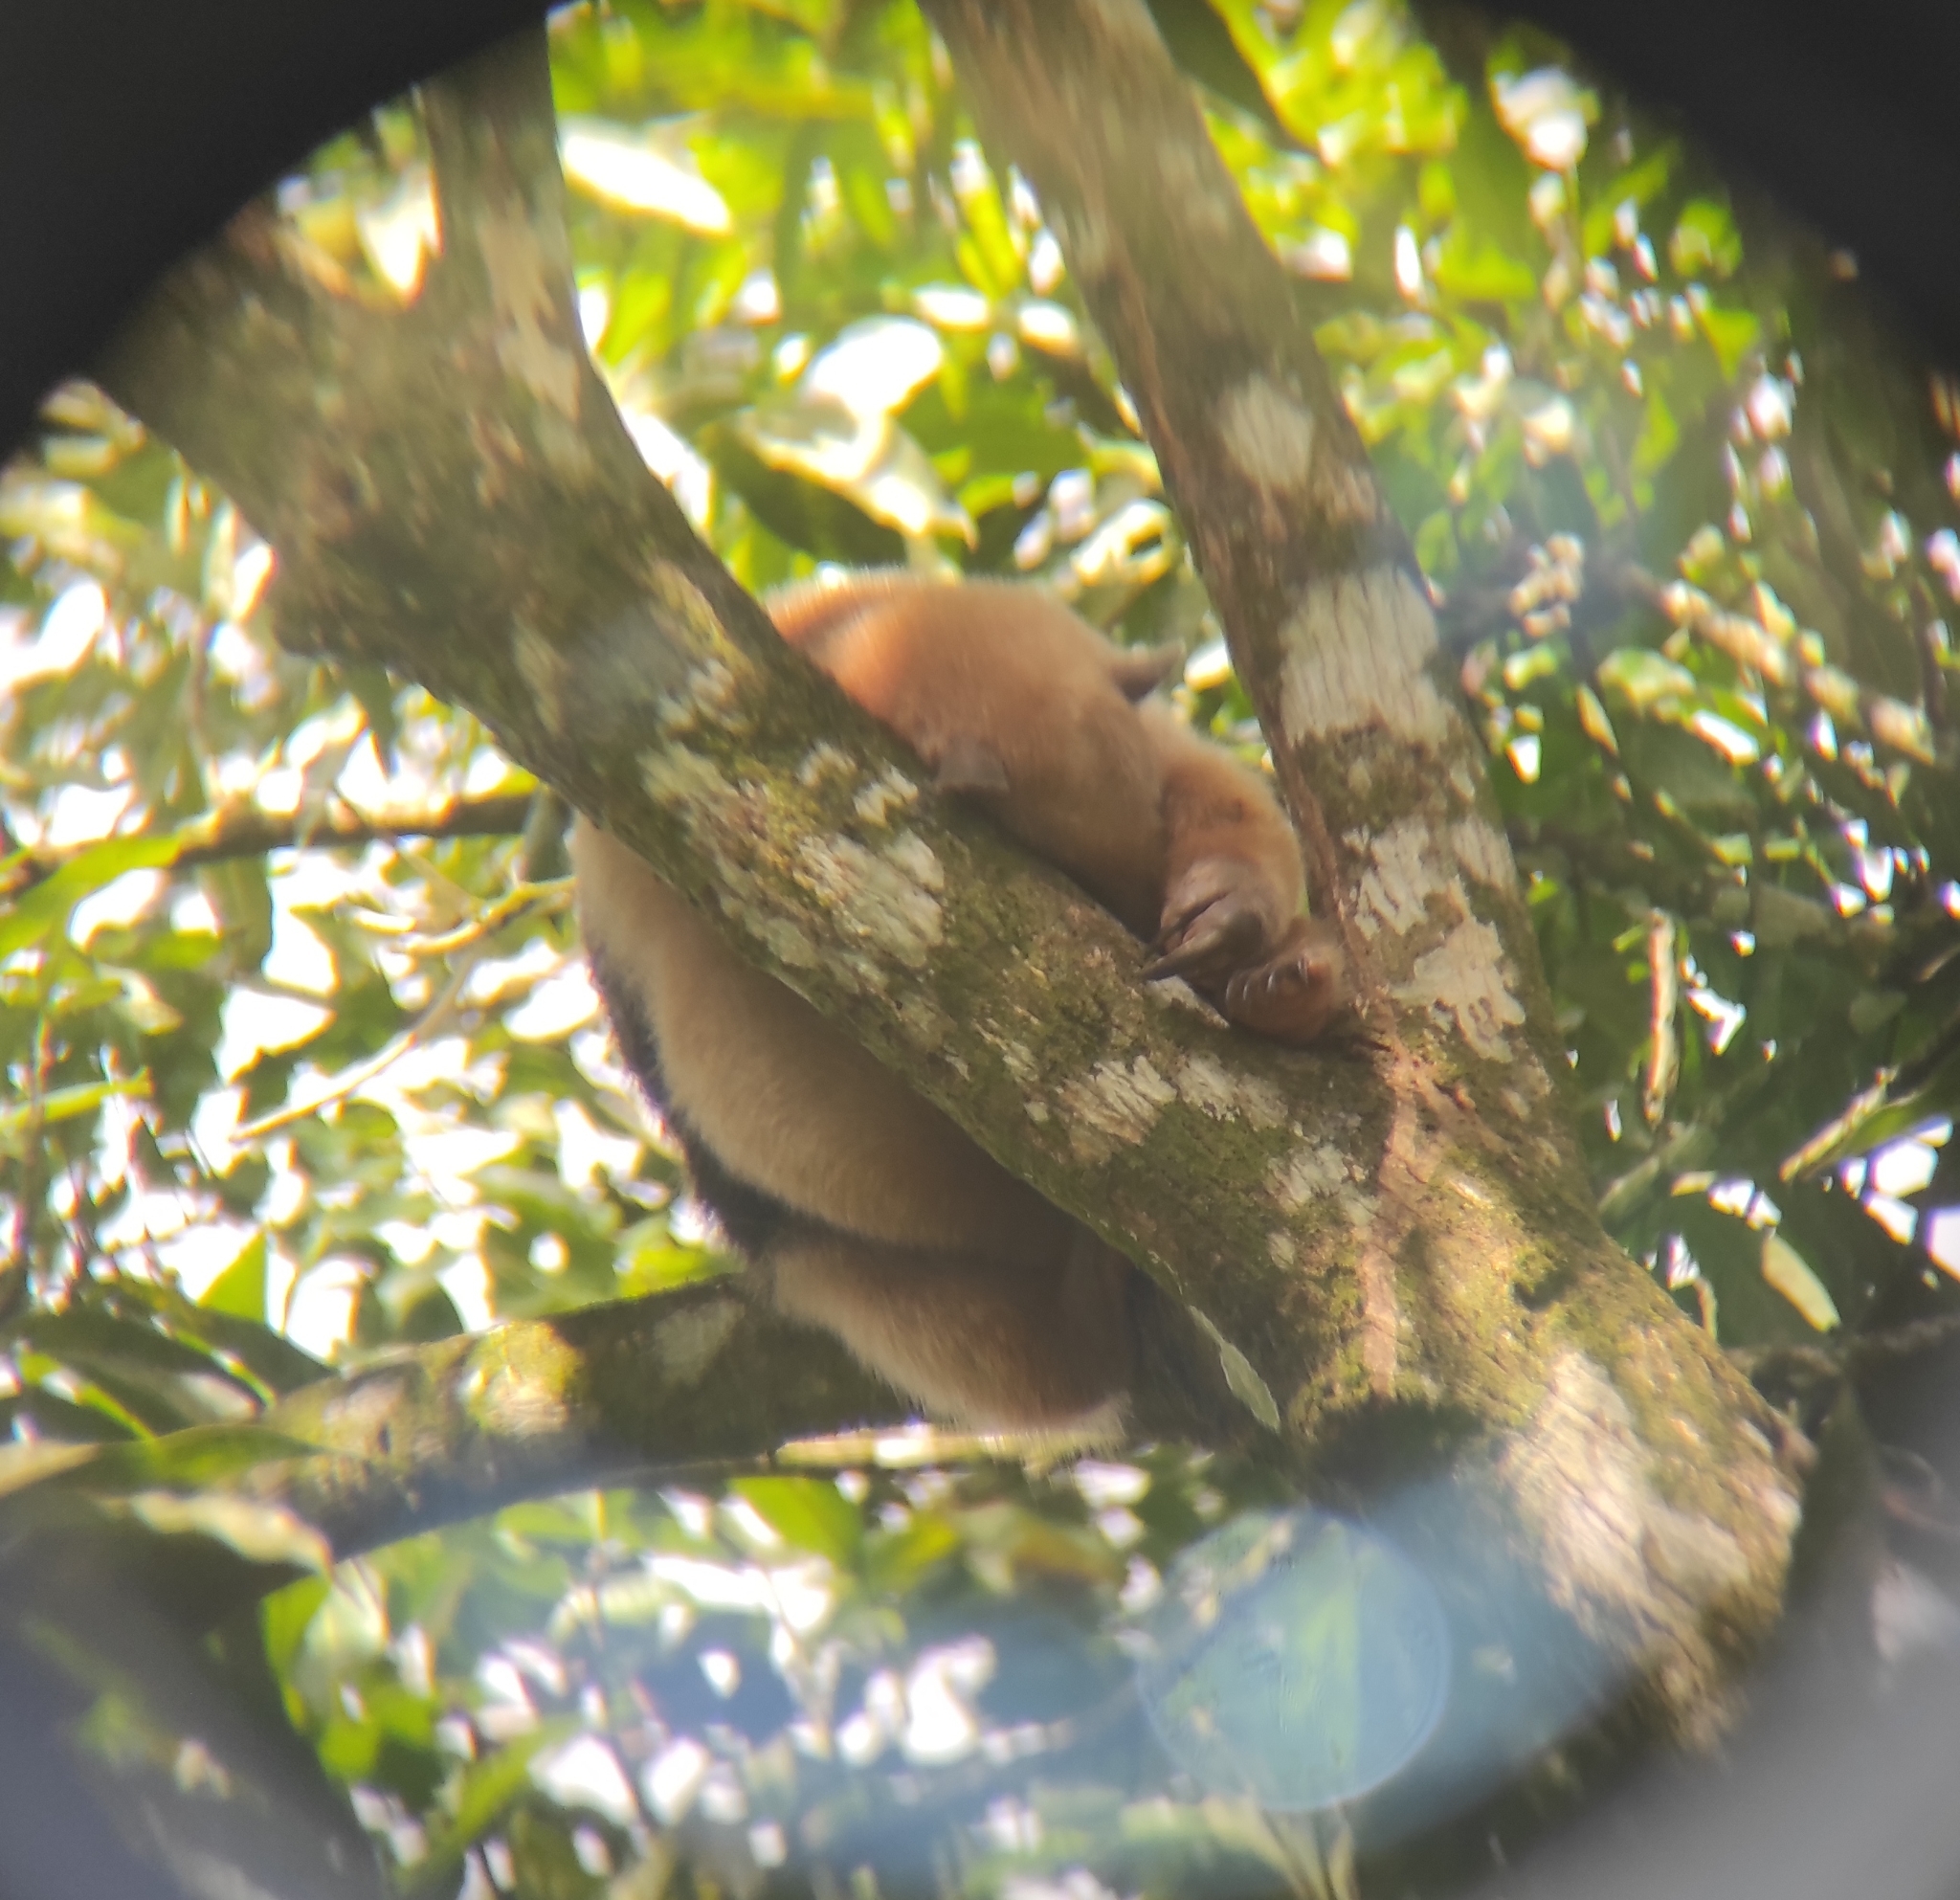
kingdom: Animalia
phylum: Chordata
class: Mammalia
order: Pilosa
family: Myrmecophagidae
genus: Tamandua
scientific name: Tamandua mexicana
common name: Northern tamandua
